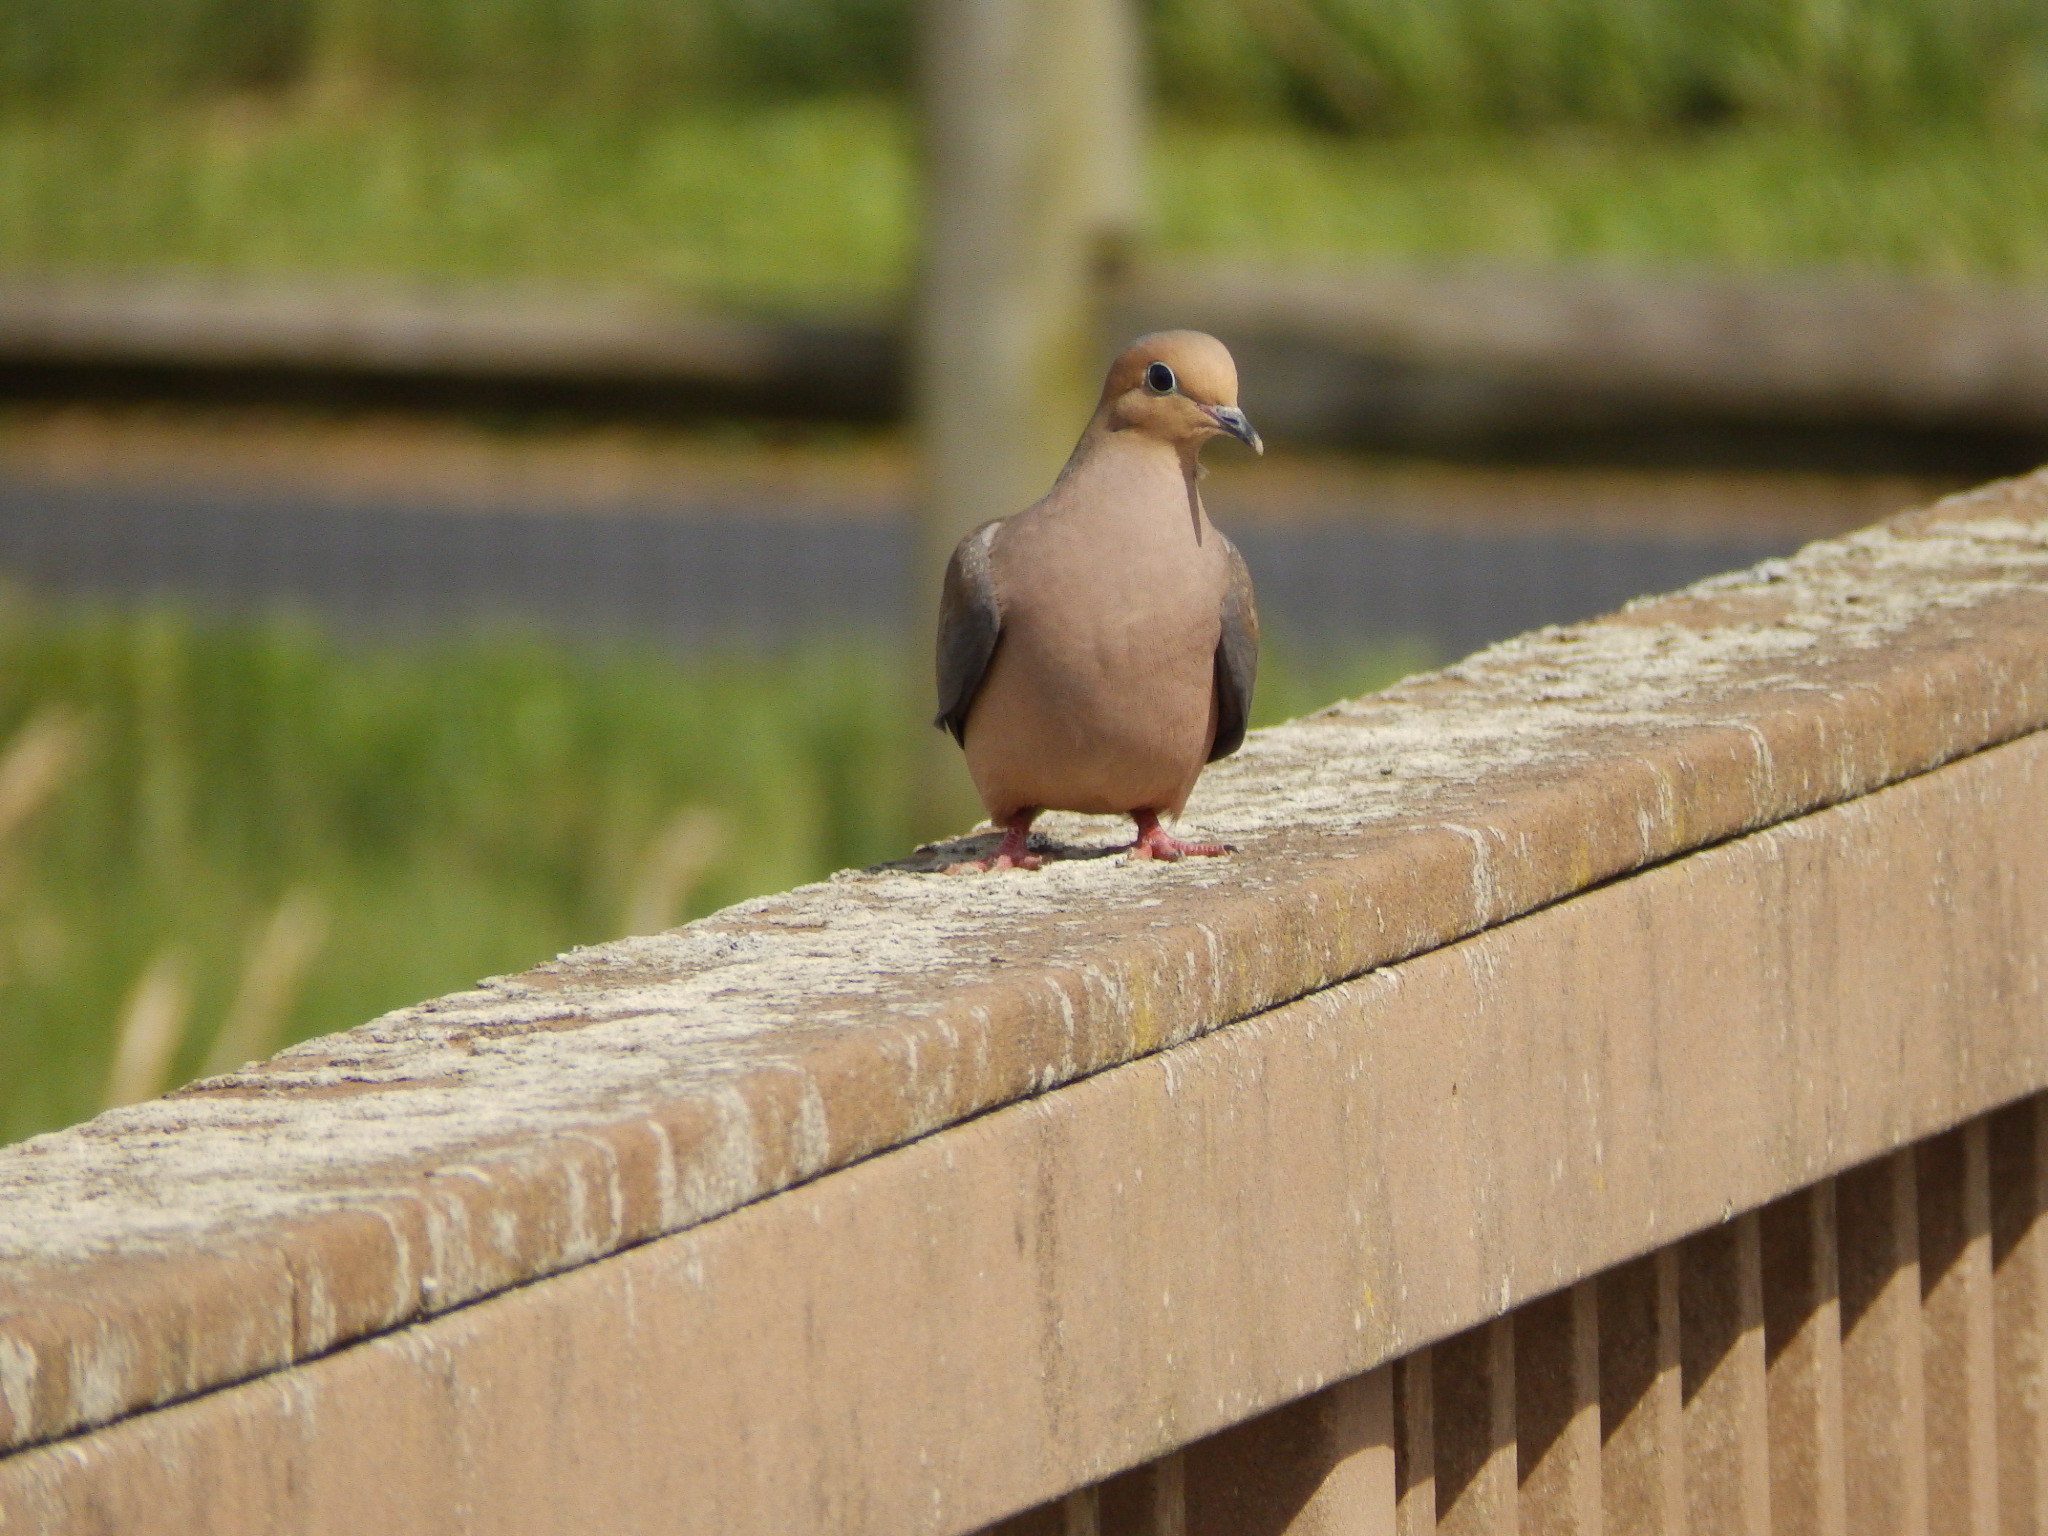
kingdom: Animalia
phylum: Chordata
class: Aves
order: Columbiformes
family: Columbidae
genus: Zenaida
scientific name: Zenaida macroura
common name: Mourning dove
